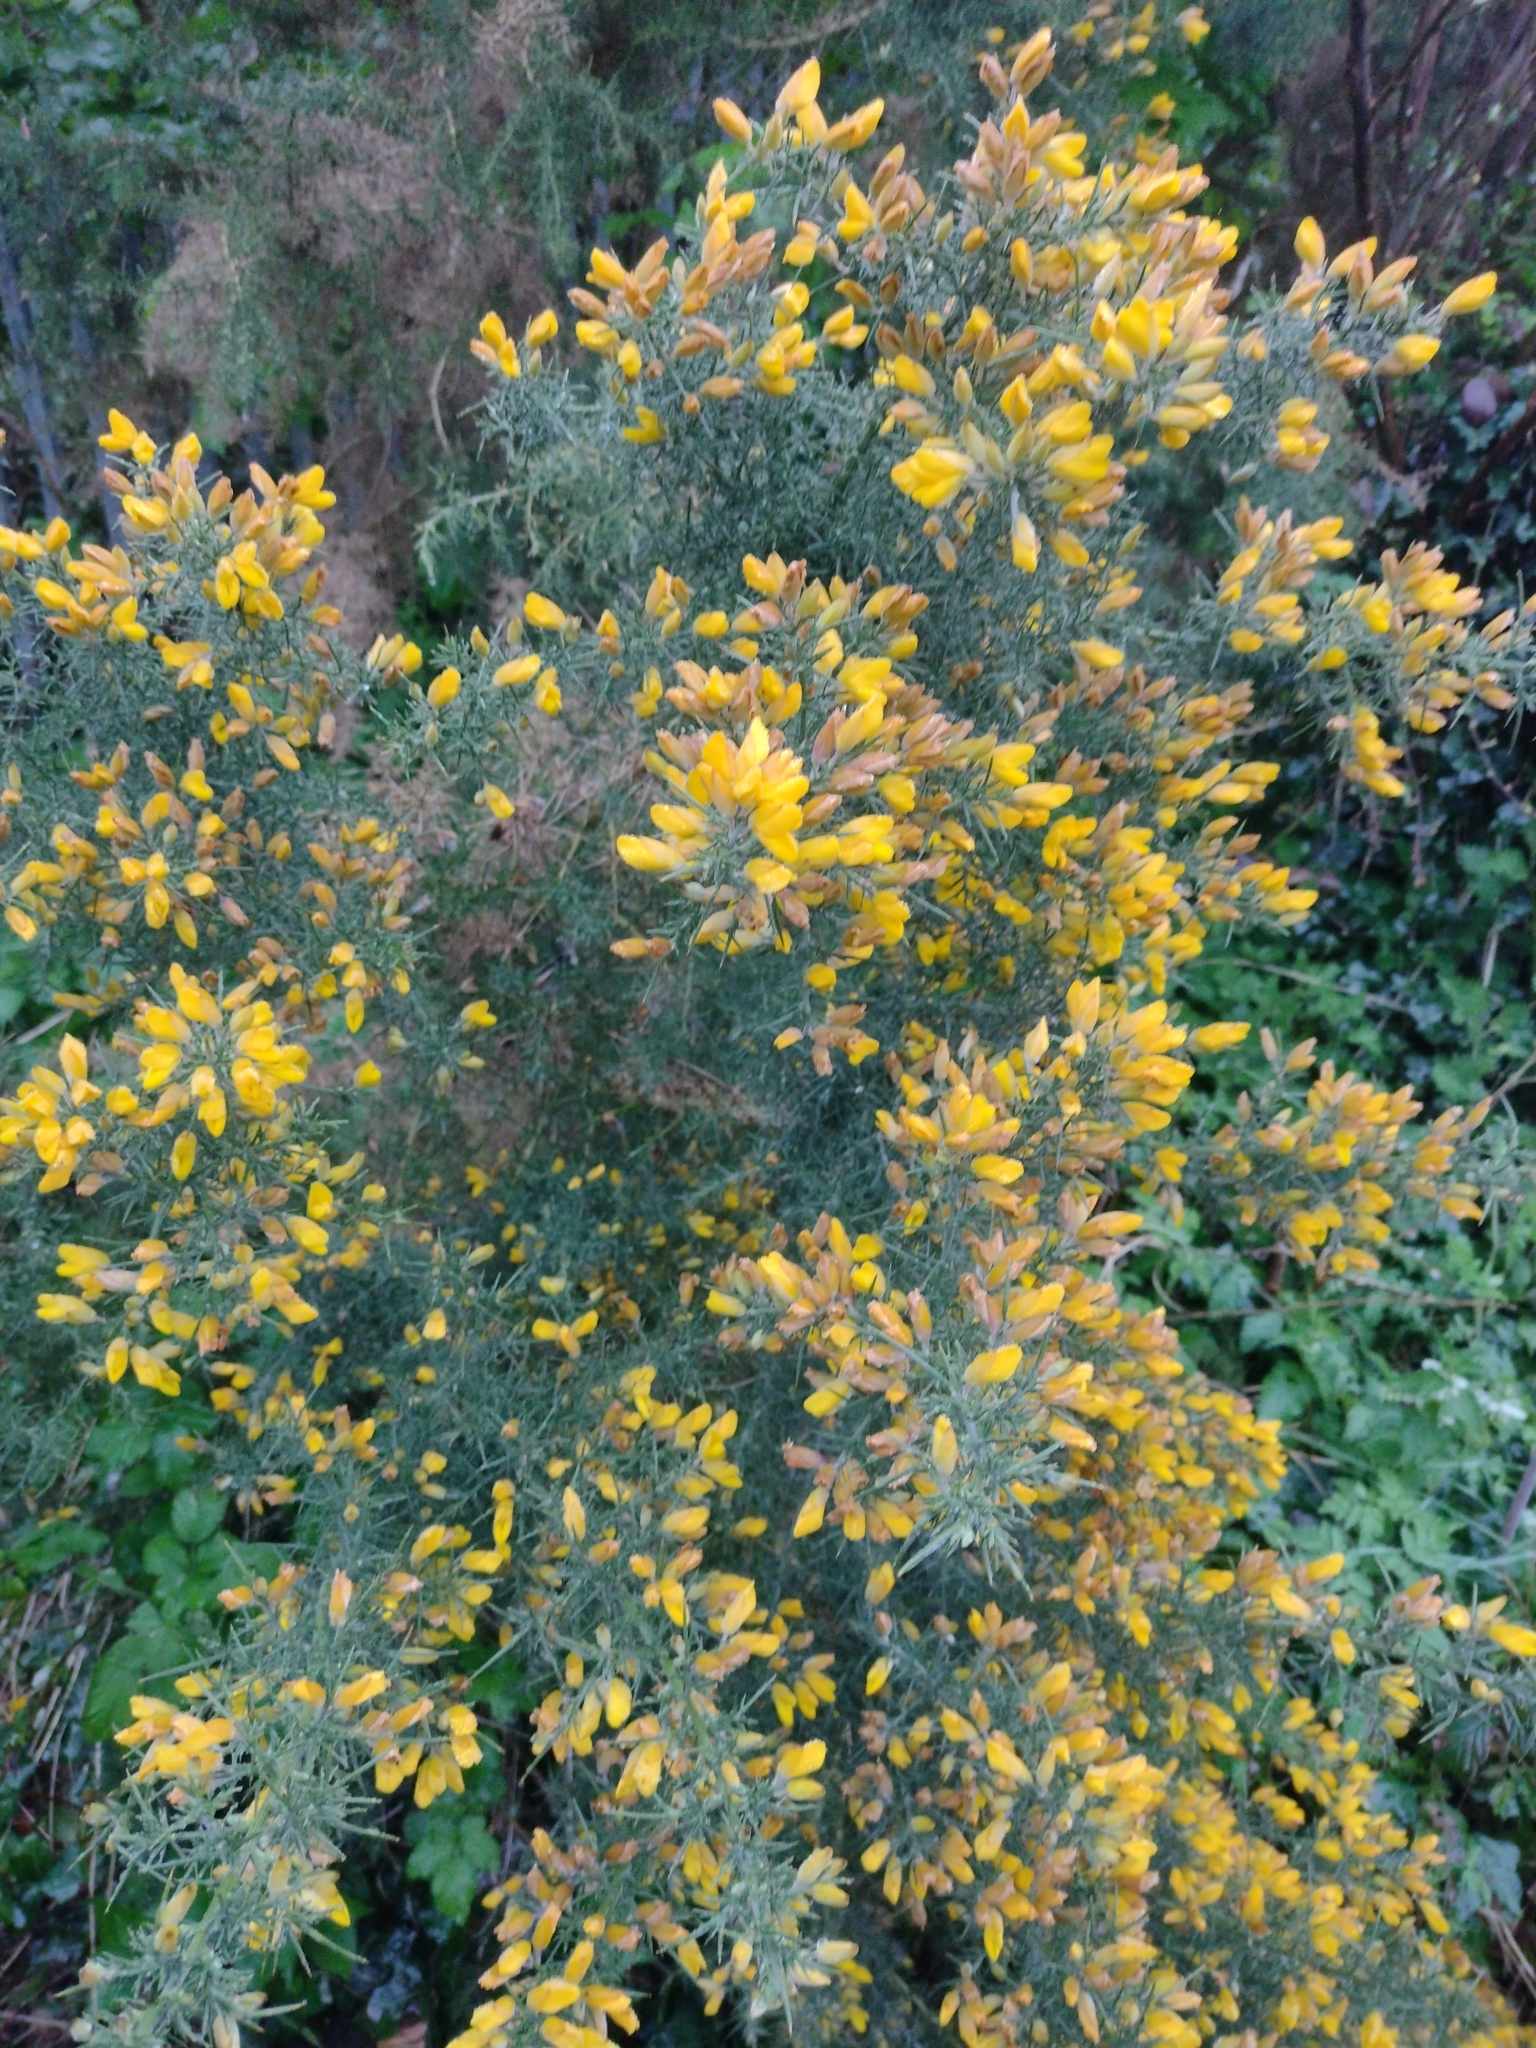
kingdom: Plantae
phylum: Tracheophyta
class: Magnoliopsida
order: Fabales
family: Fabaceae
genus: Ulex
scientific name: Ulex europaeus
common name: Common gorse
